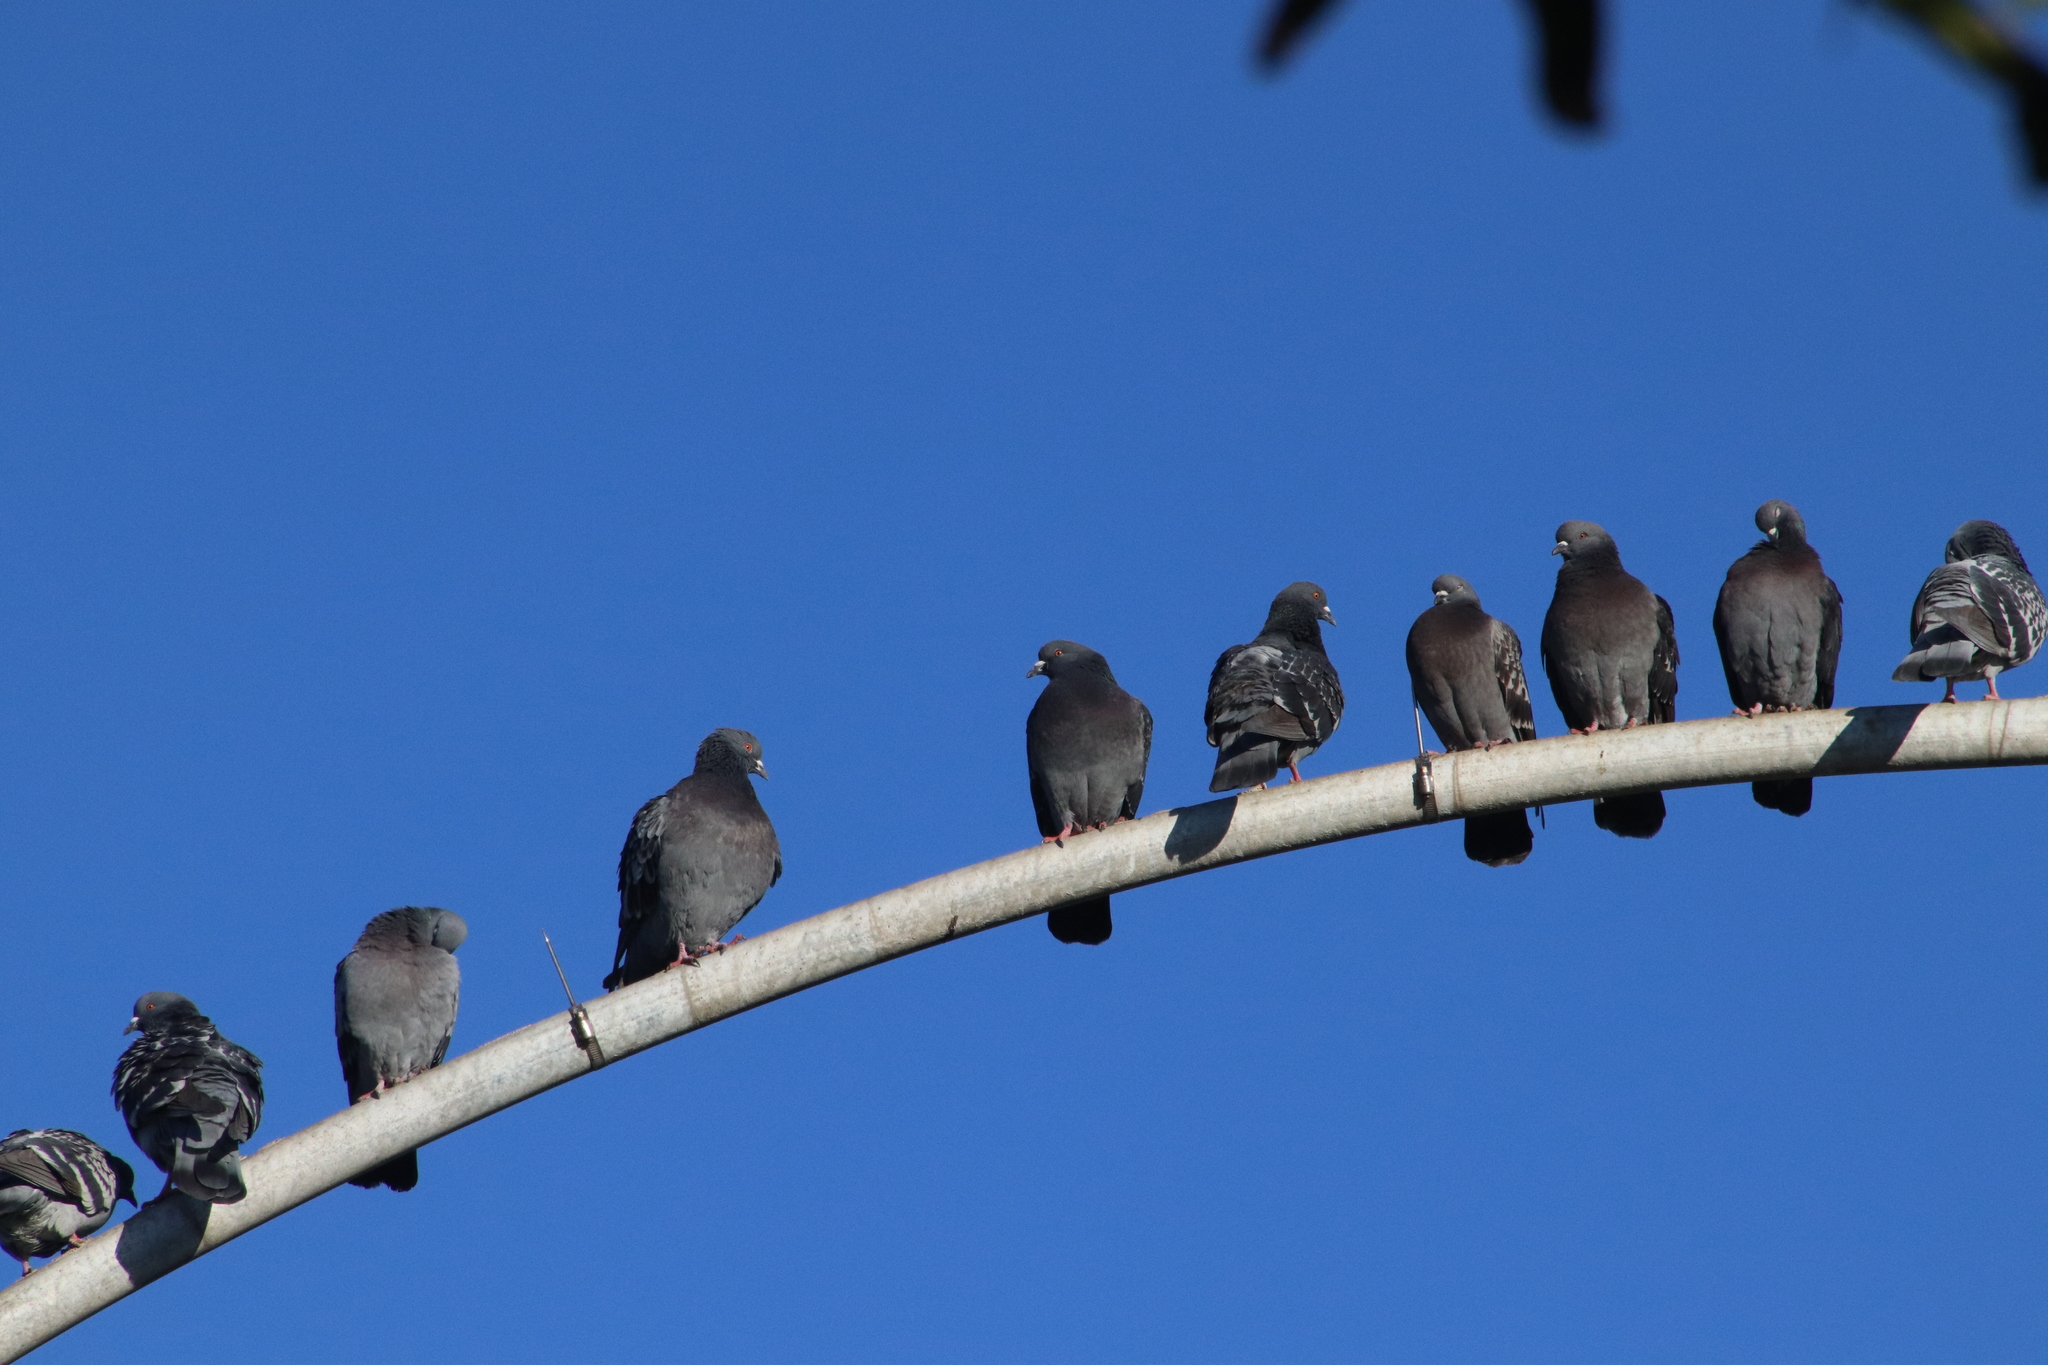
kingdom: Animalia
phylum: Chordata
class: Aves
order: Columbiformes
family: Columbidae
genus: Columba
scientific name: Columba livia
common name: Rock pigeon
